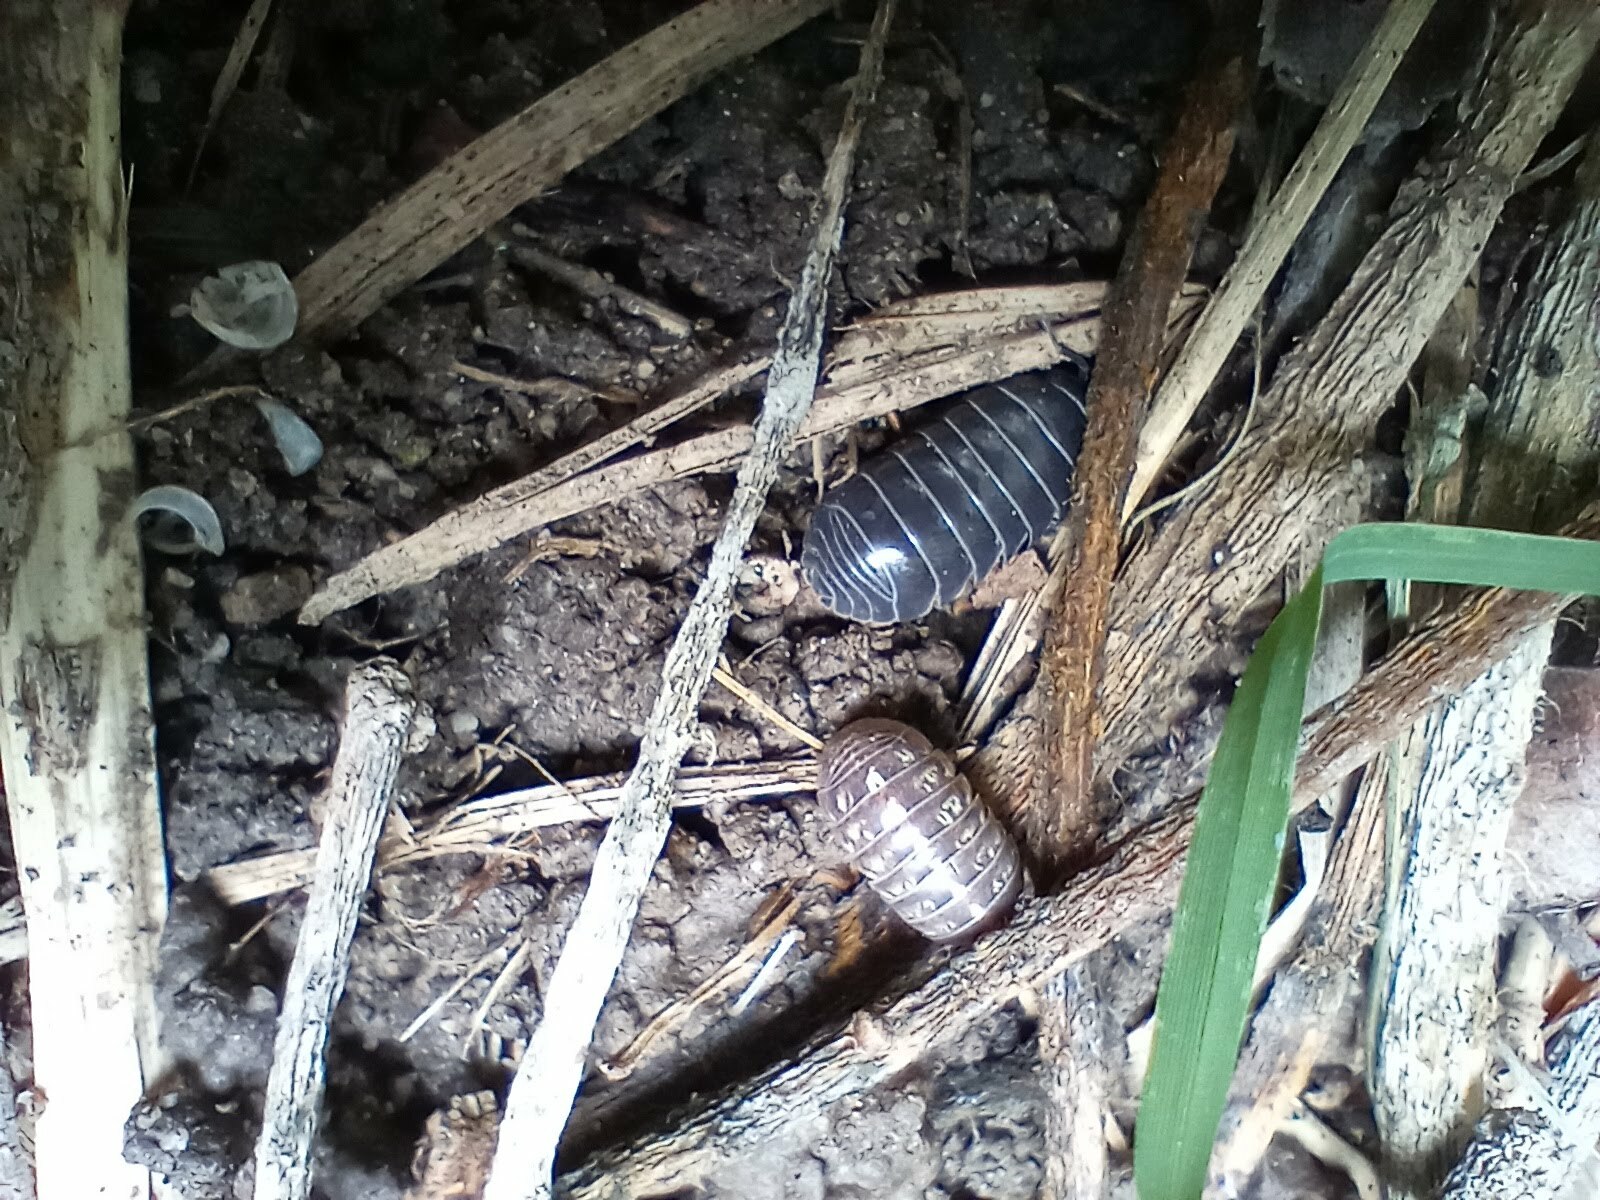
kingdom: Animalia
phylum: Arthropoda
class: Malacostraca
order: Isopoda
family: Armadillidiidae
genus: Armadillidium
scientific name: Armadillidium vulgare
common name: Common pill woodlouse
